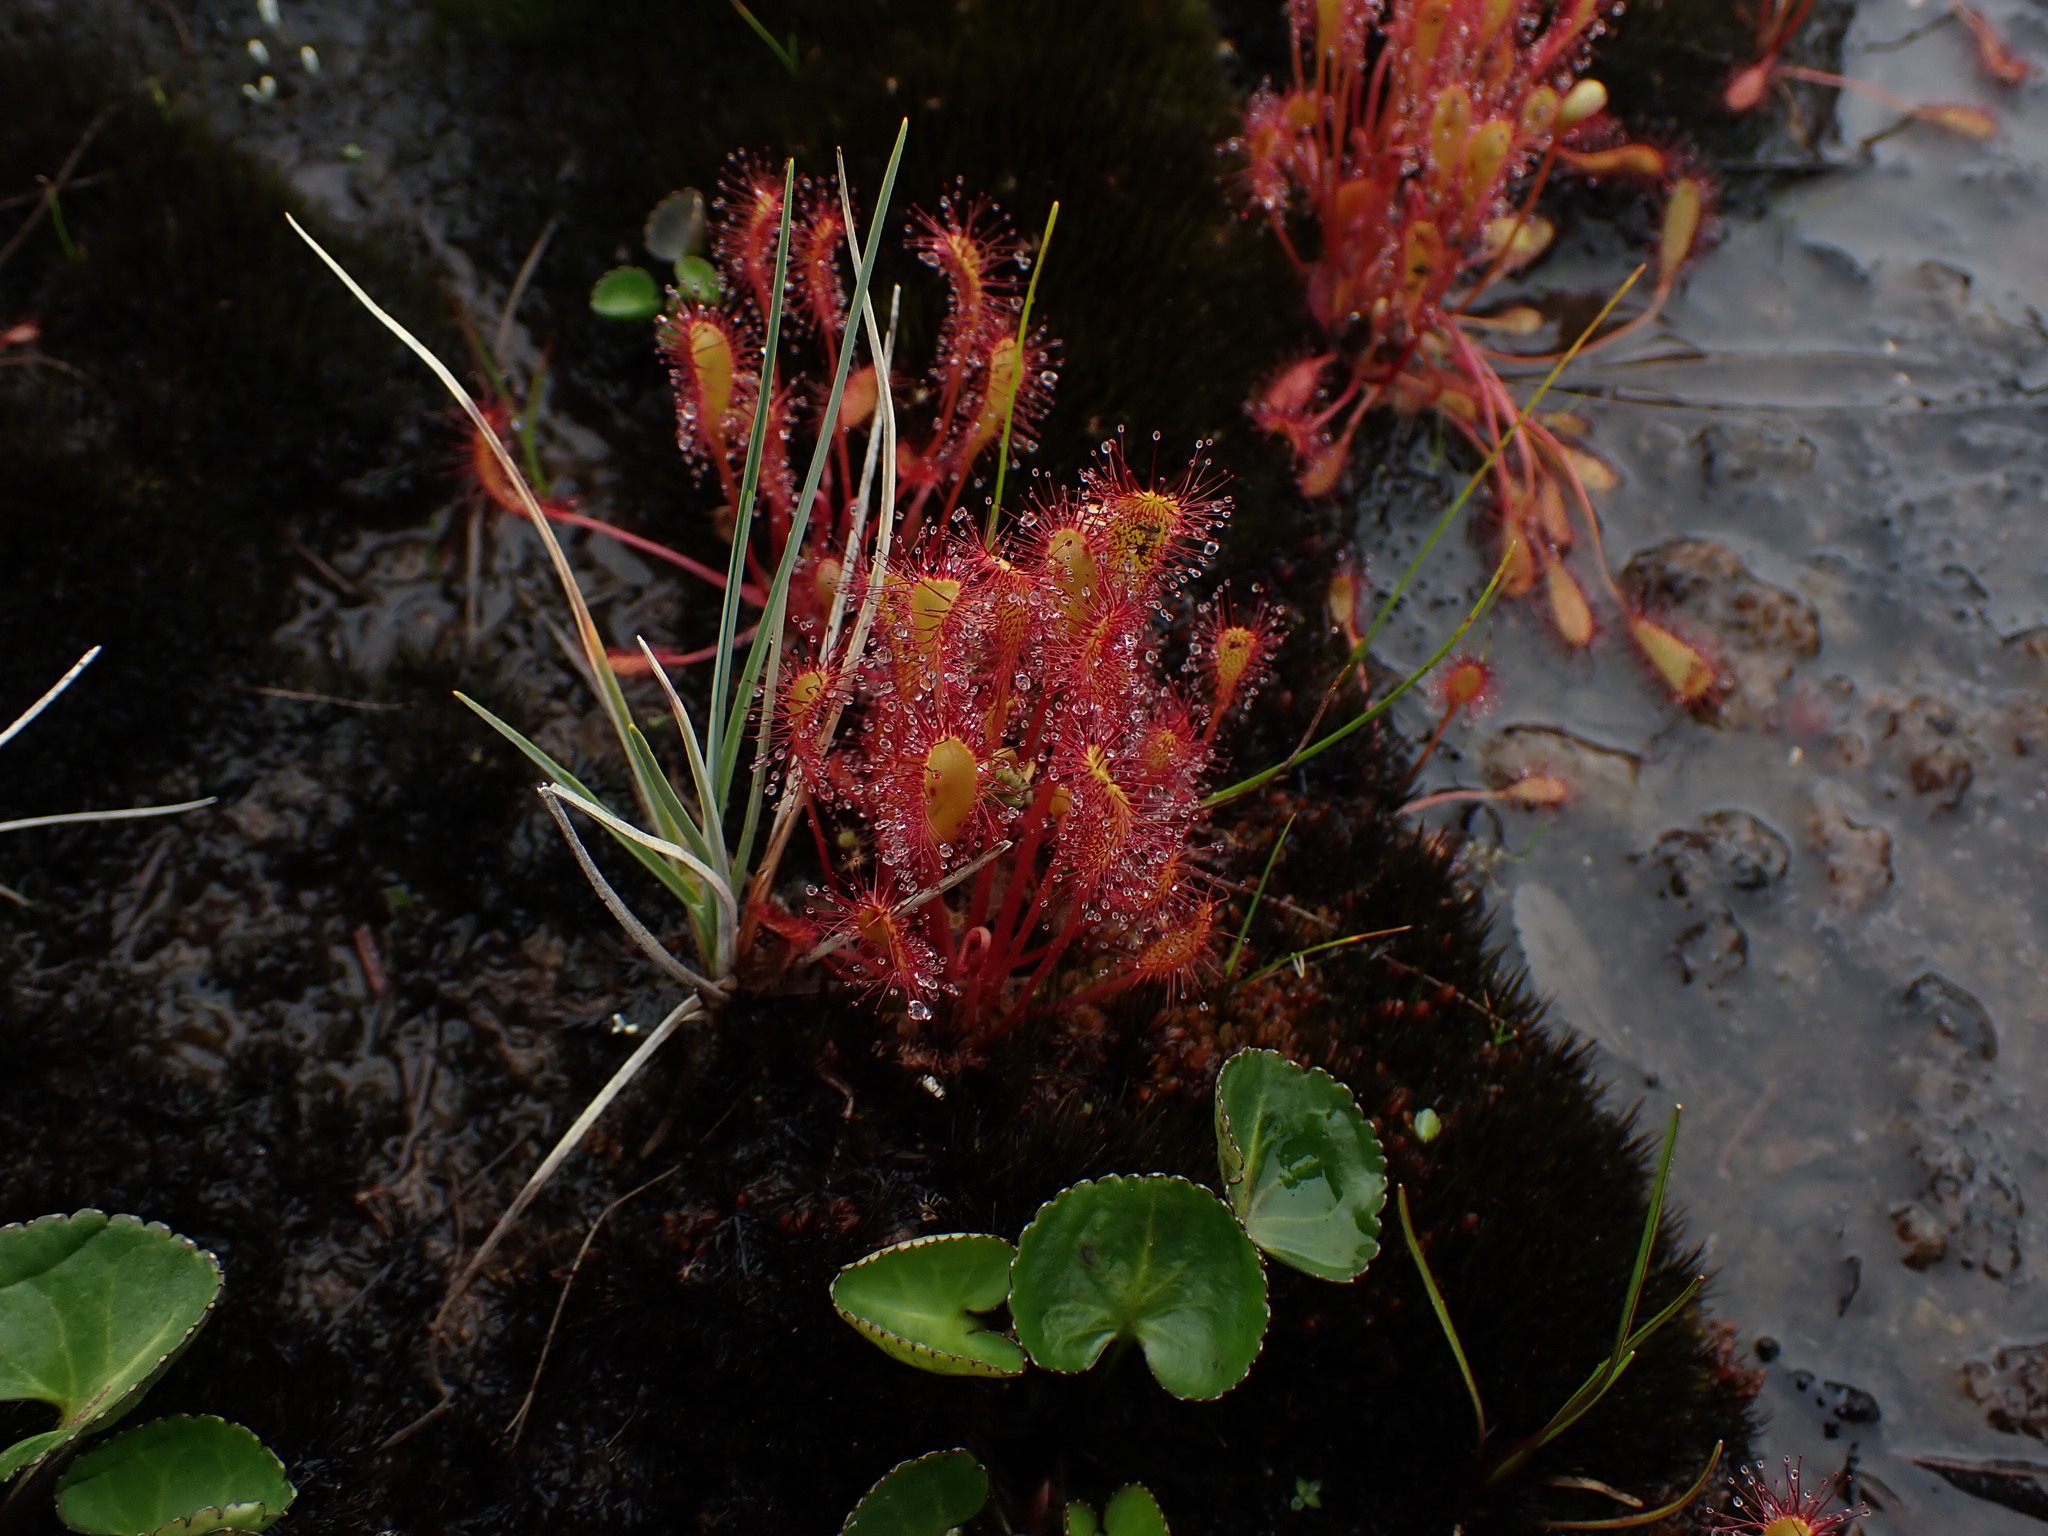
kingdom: Plantae
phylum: Tracheophyta
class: Magnoliopsida
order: Caryophyllales
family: Droseraceae
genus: Drosera
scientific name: Drosera anglica
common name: Great sundew
